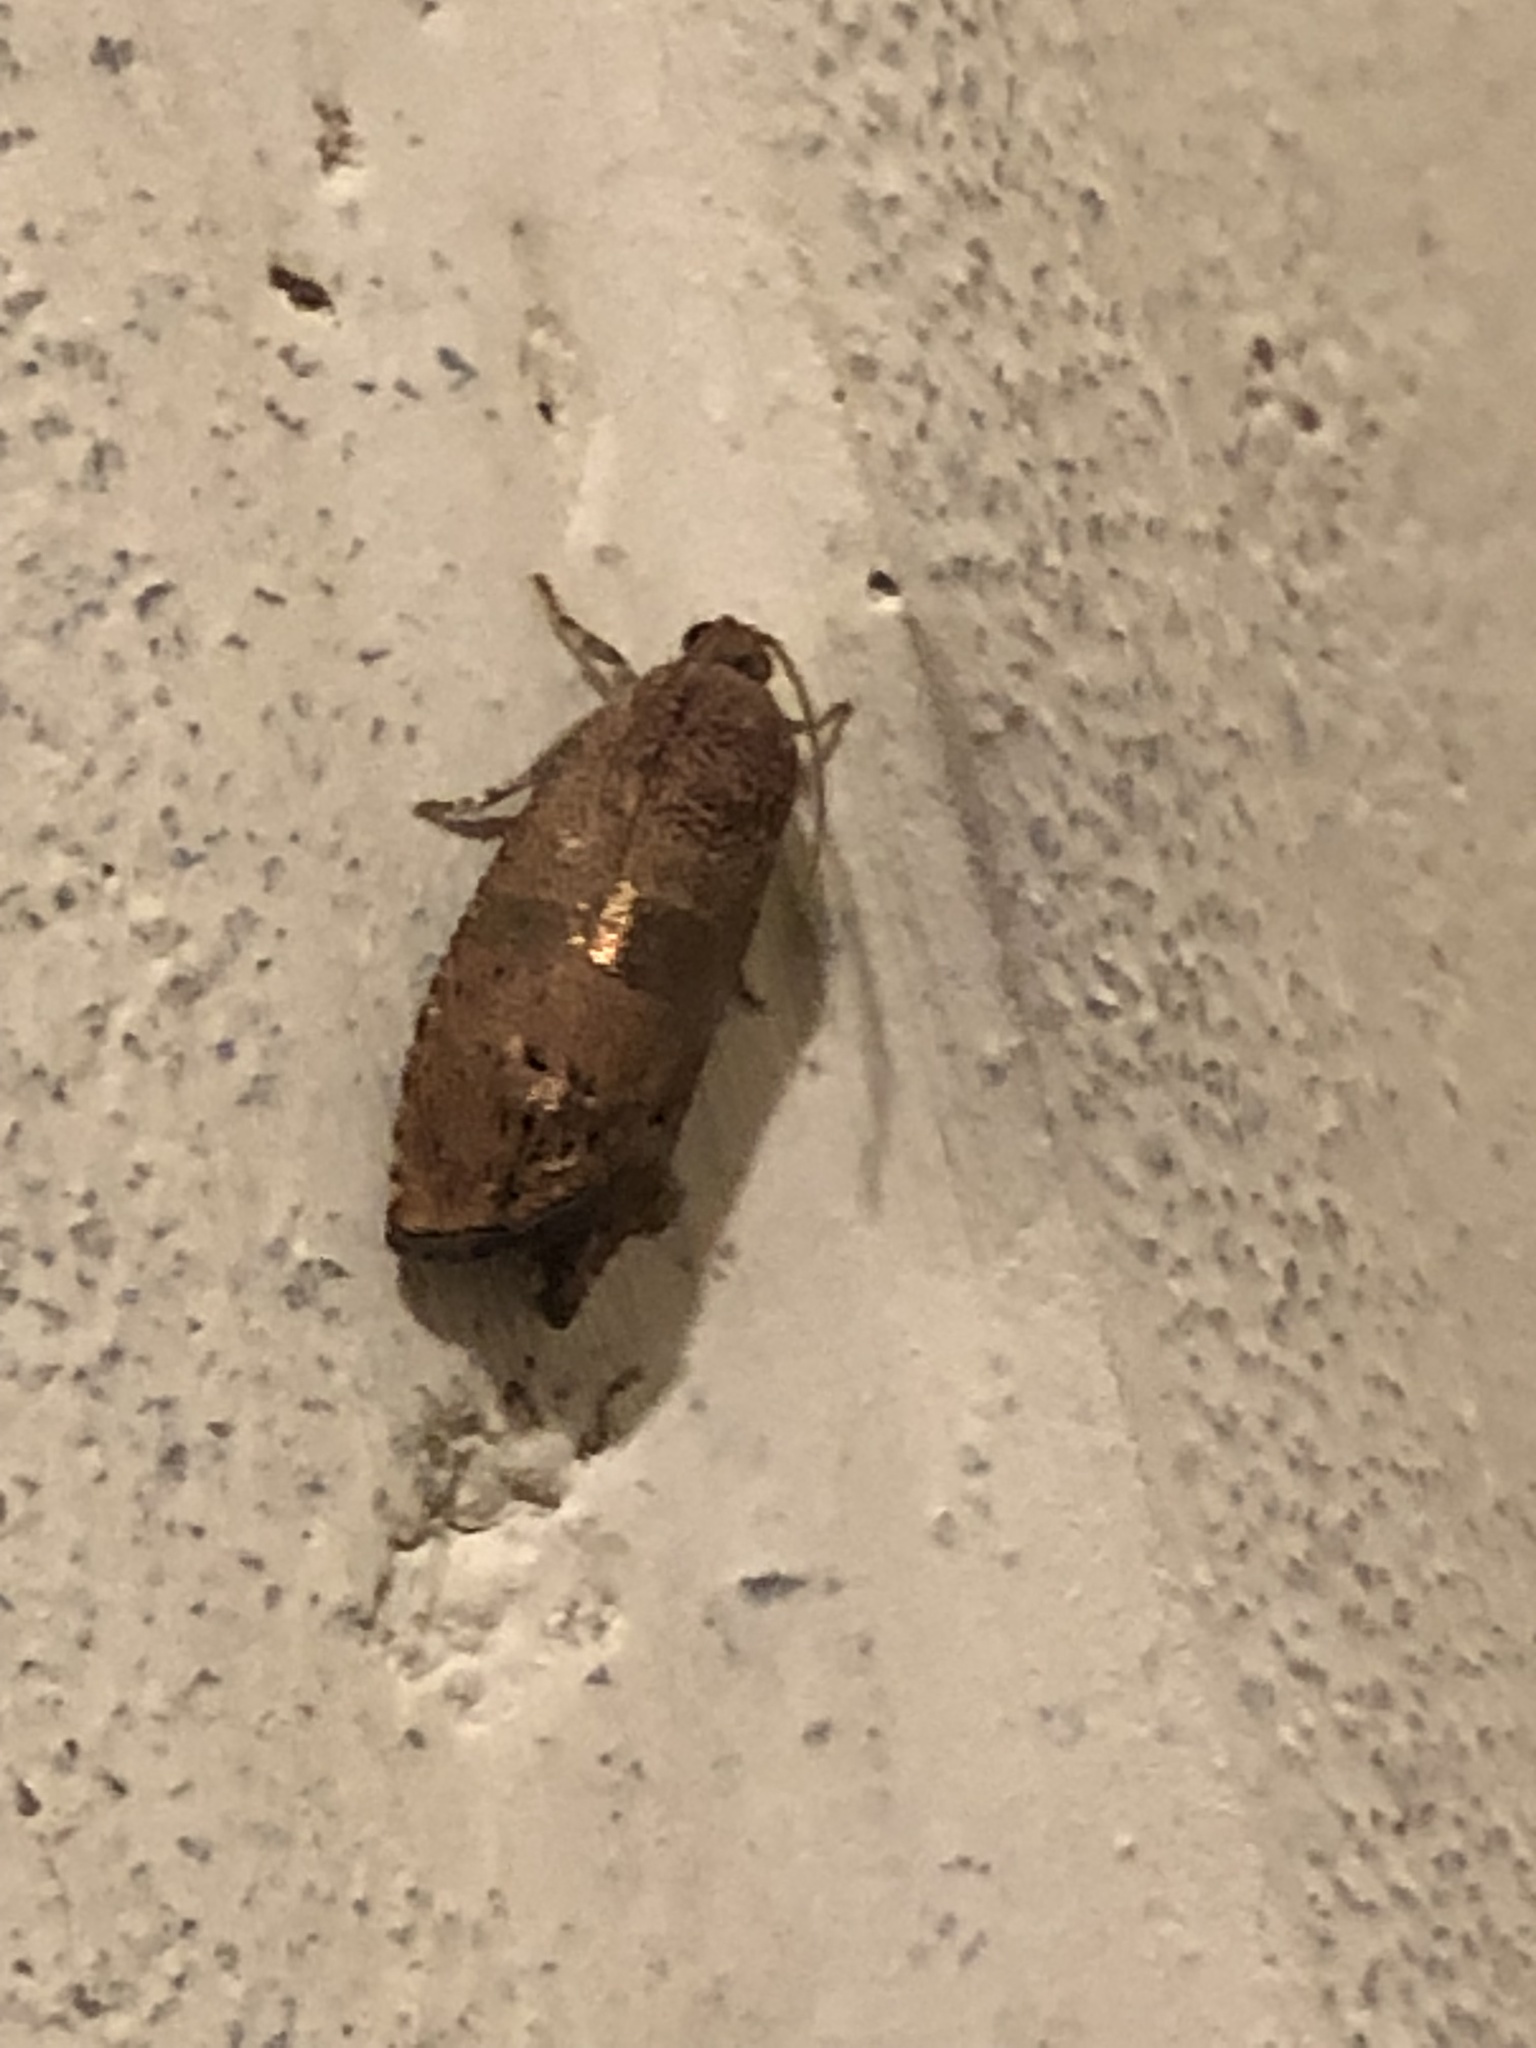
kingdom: Animalia
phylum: Arthropoda
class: Insecta
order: Lepidoptera
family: Tortricidae
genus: Cydia
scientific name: Cydia latiferreana
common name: Filbertworm moth
